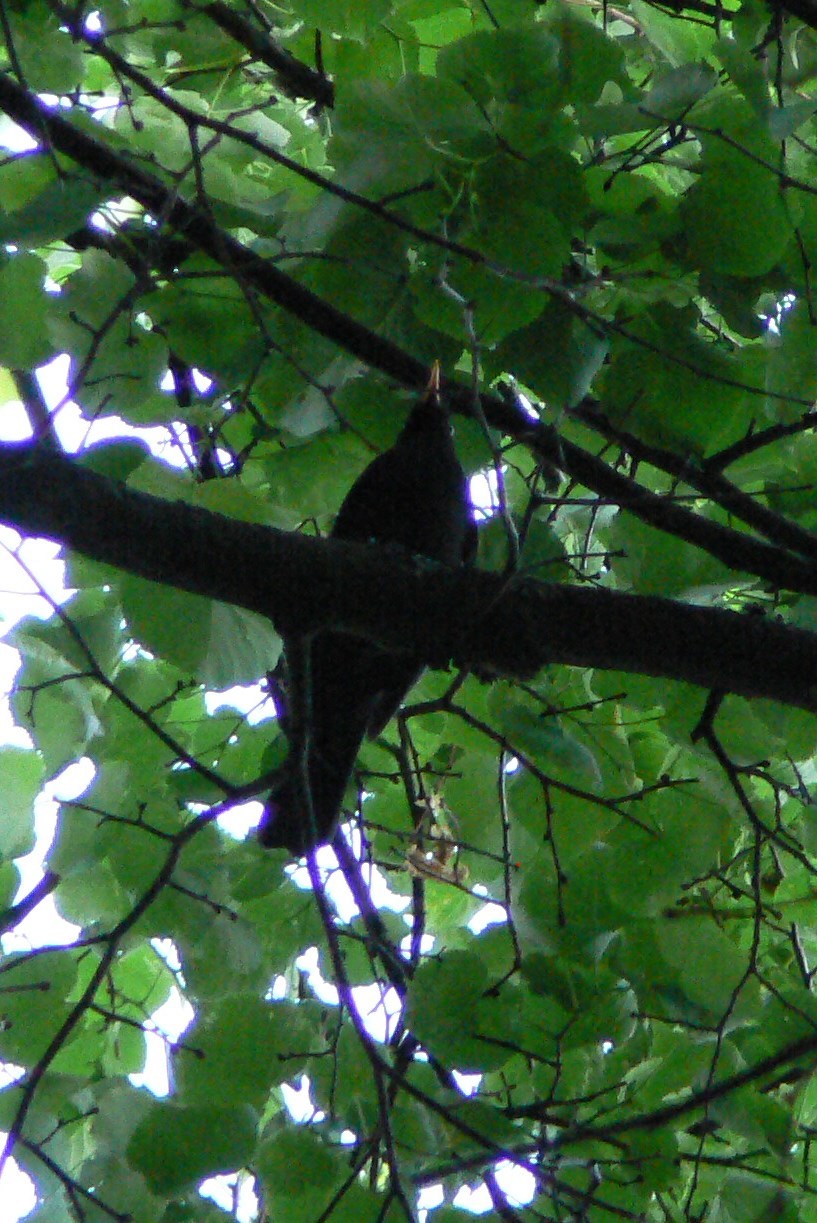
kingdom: Animalia
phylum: Chordata
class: Aves
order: Passeriformes
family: Turdidae
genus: Turdus
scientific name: Turdus merula
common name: Common blackbird
